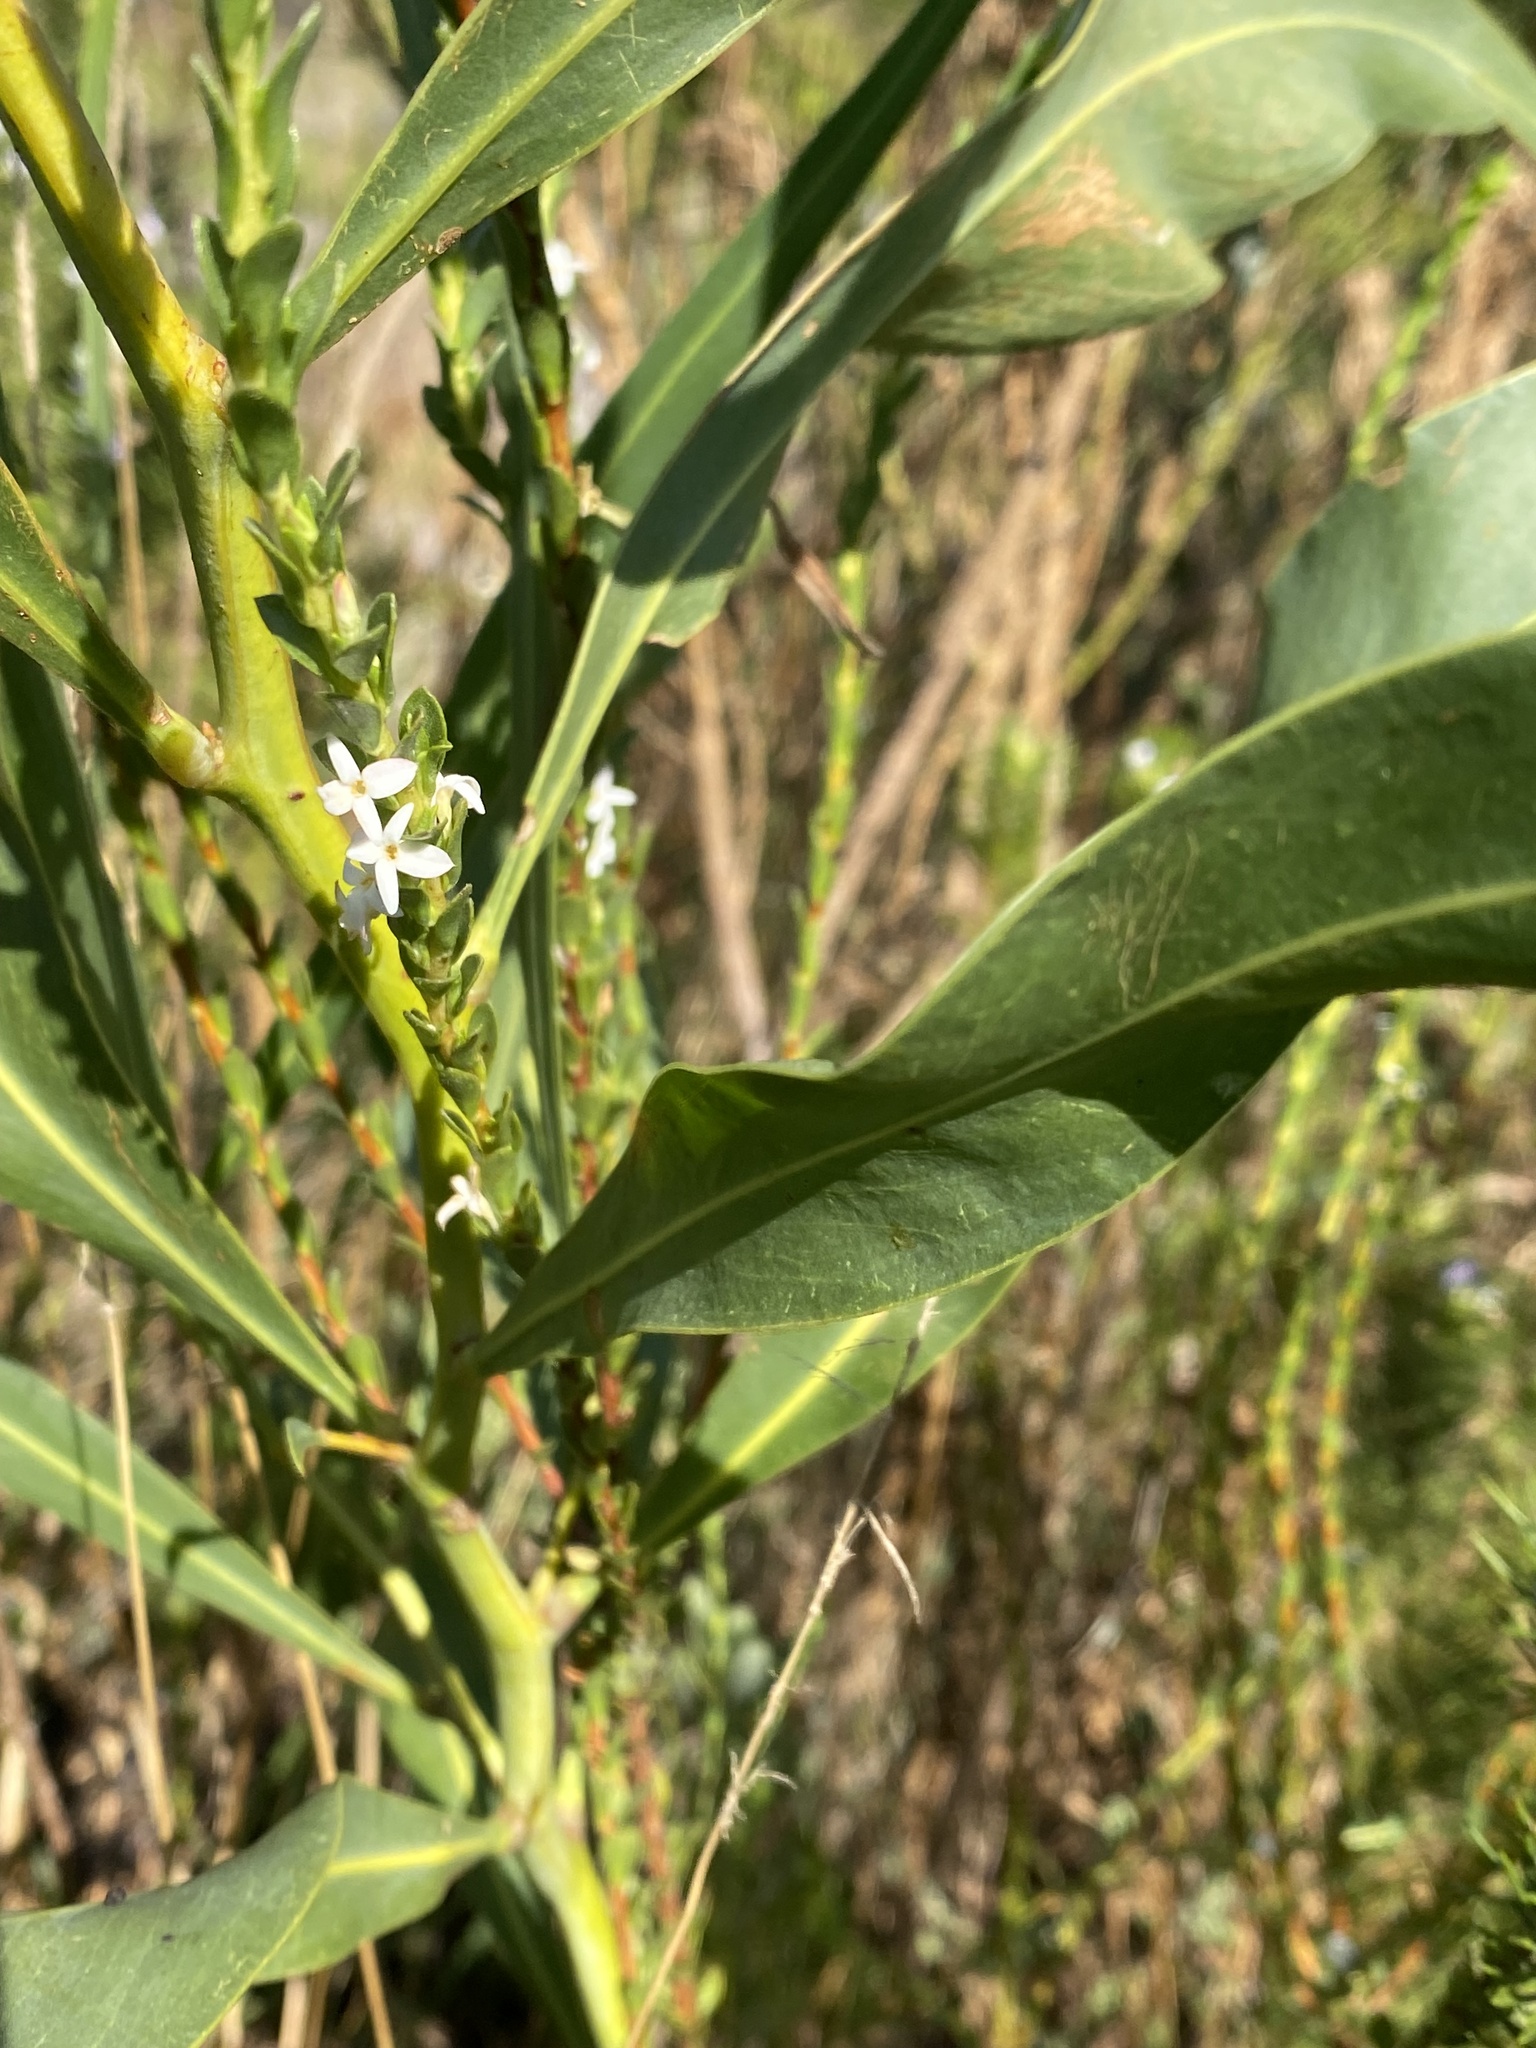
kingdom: Plantae
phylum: Tracheophyta
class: Magnoliopsida
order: Malvales
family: Thymelaeaceae
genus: Gnidia
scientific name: Gnidia spicata
